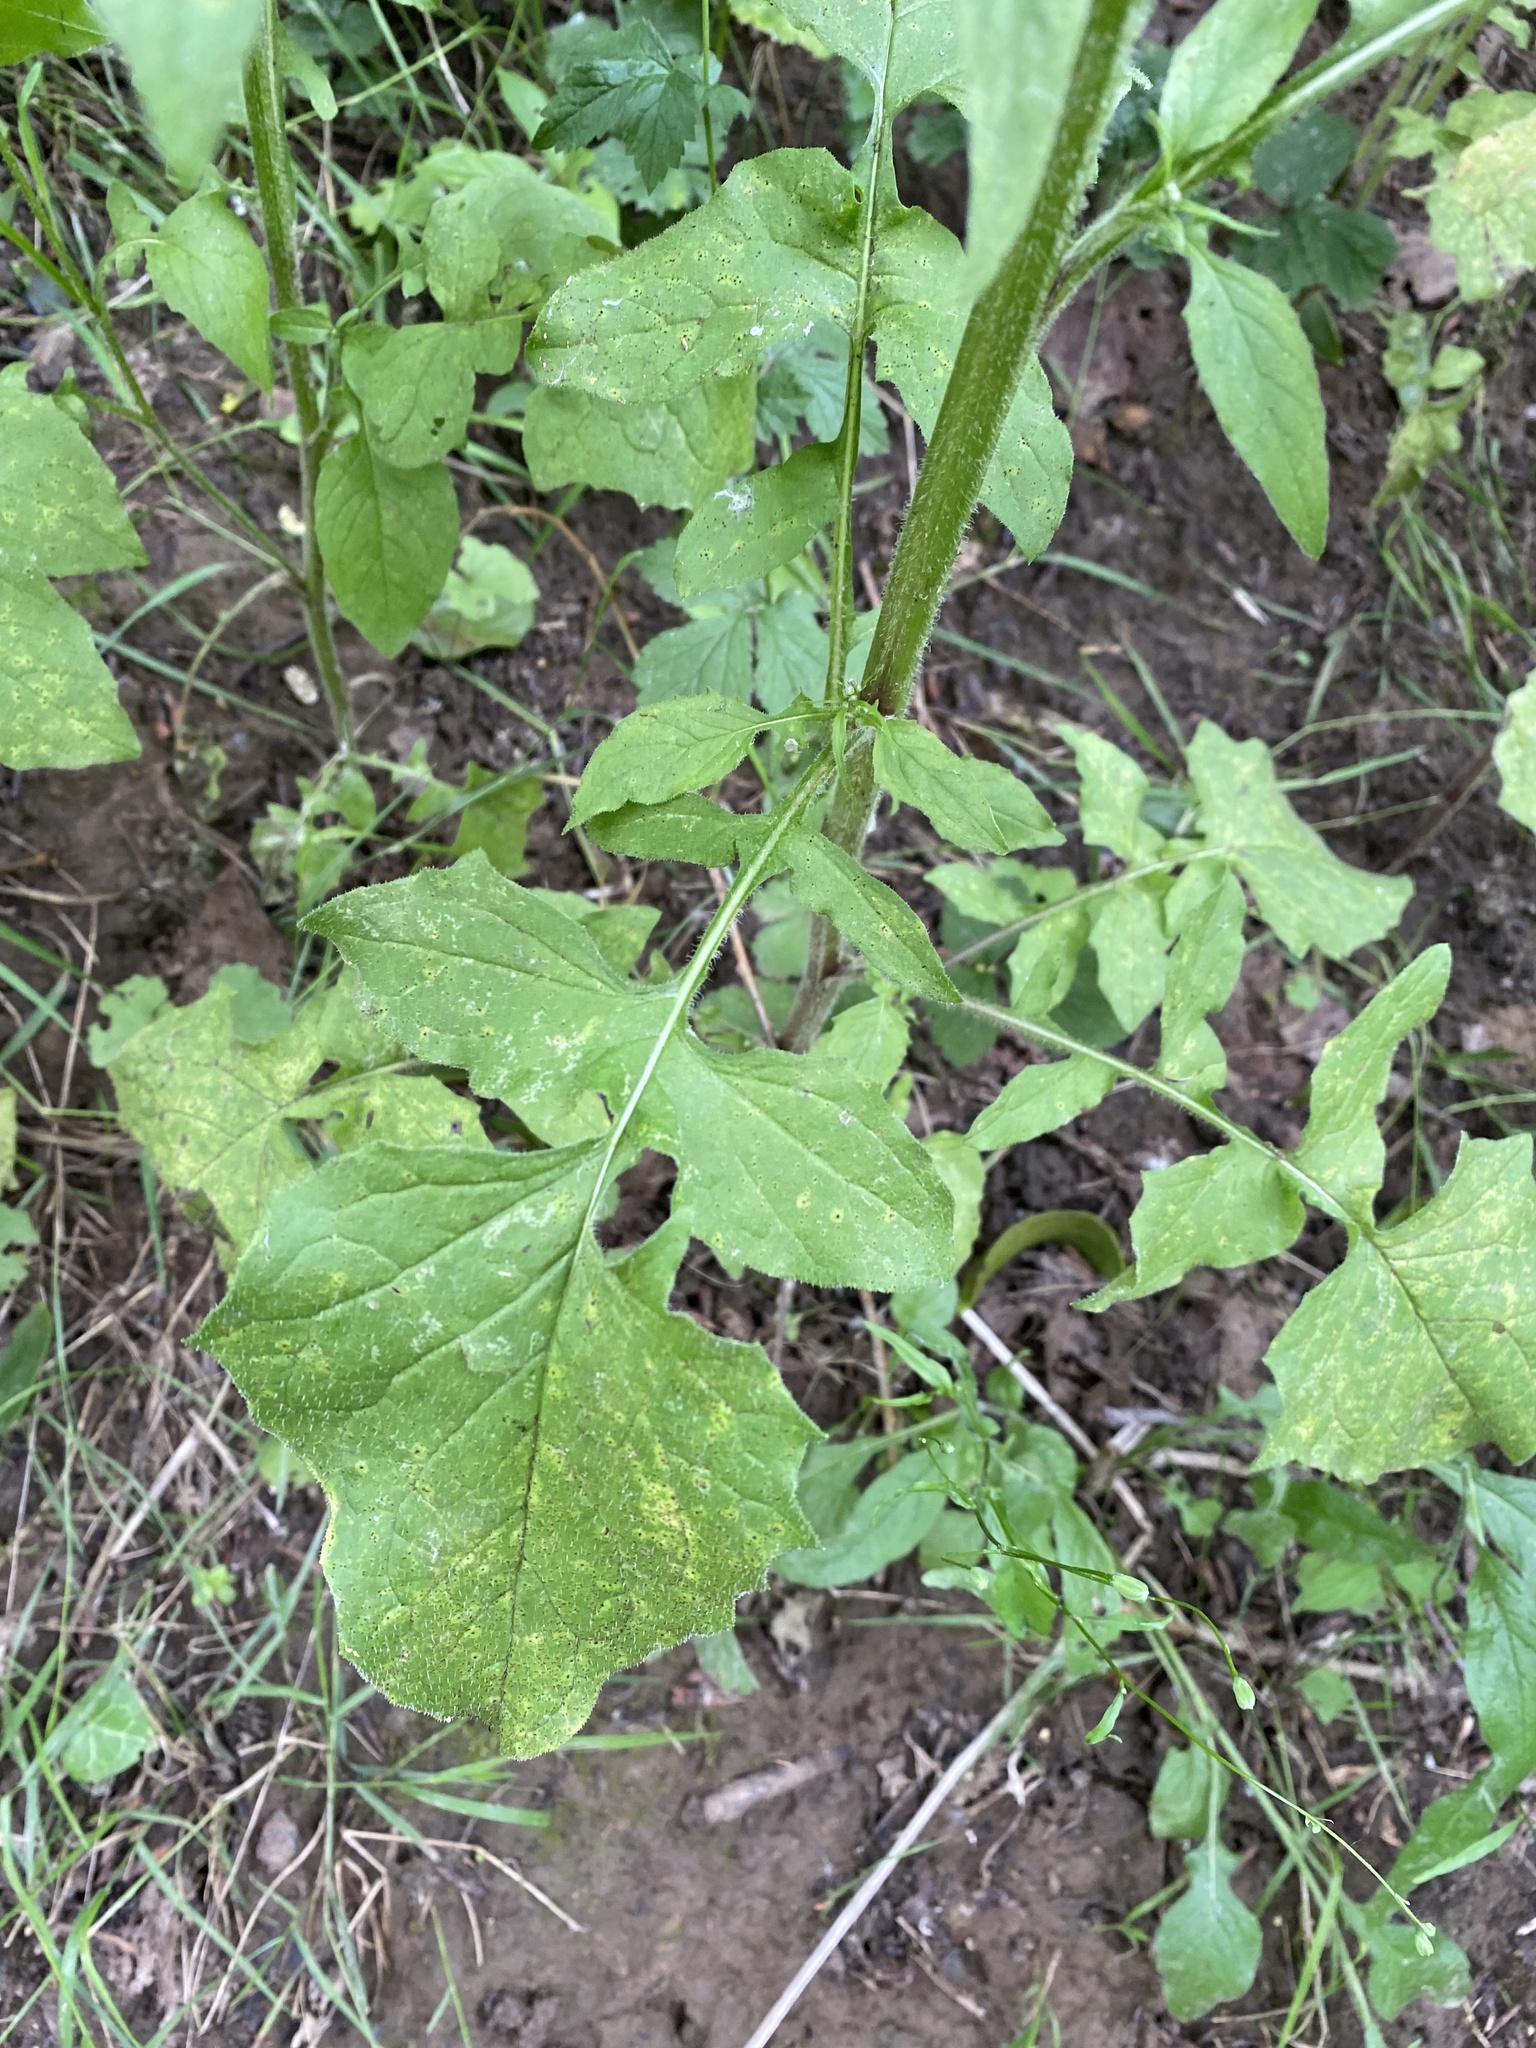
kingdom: Plantae
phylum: Tracheophyta
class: Magnoliopsida
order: Asterales
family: Asteraceae
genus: Lapsana
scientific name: Lapsana communis
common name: Nipplewort
